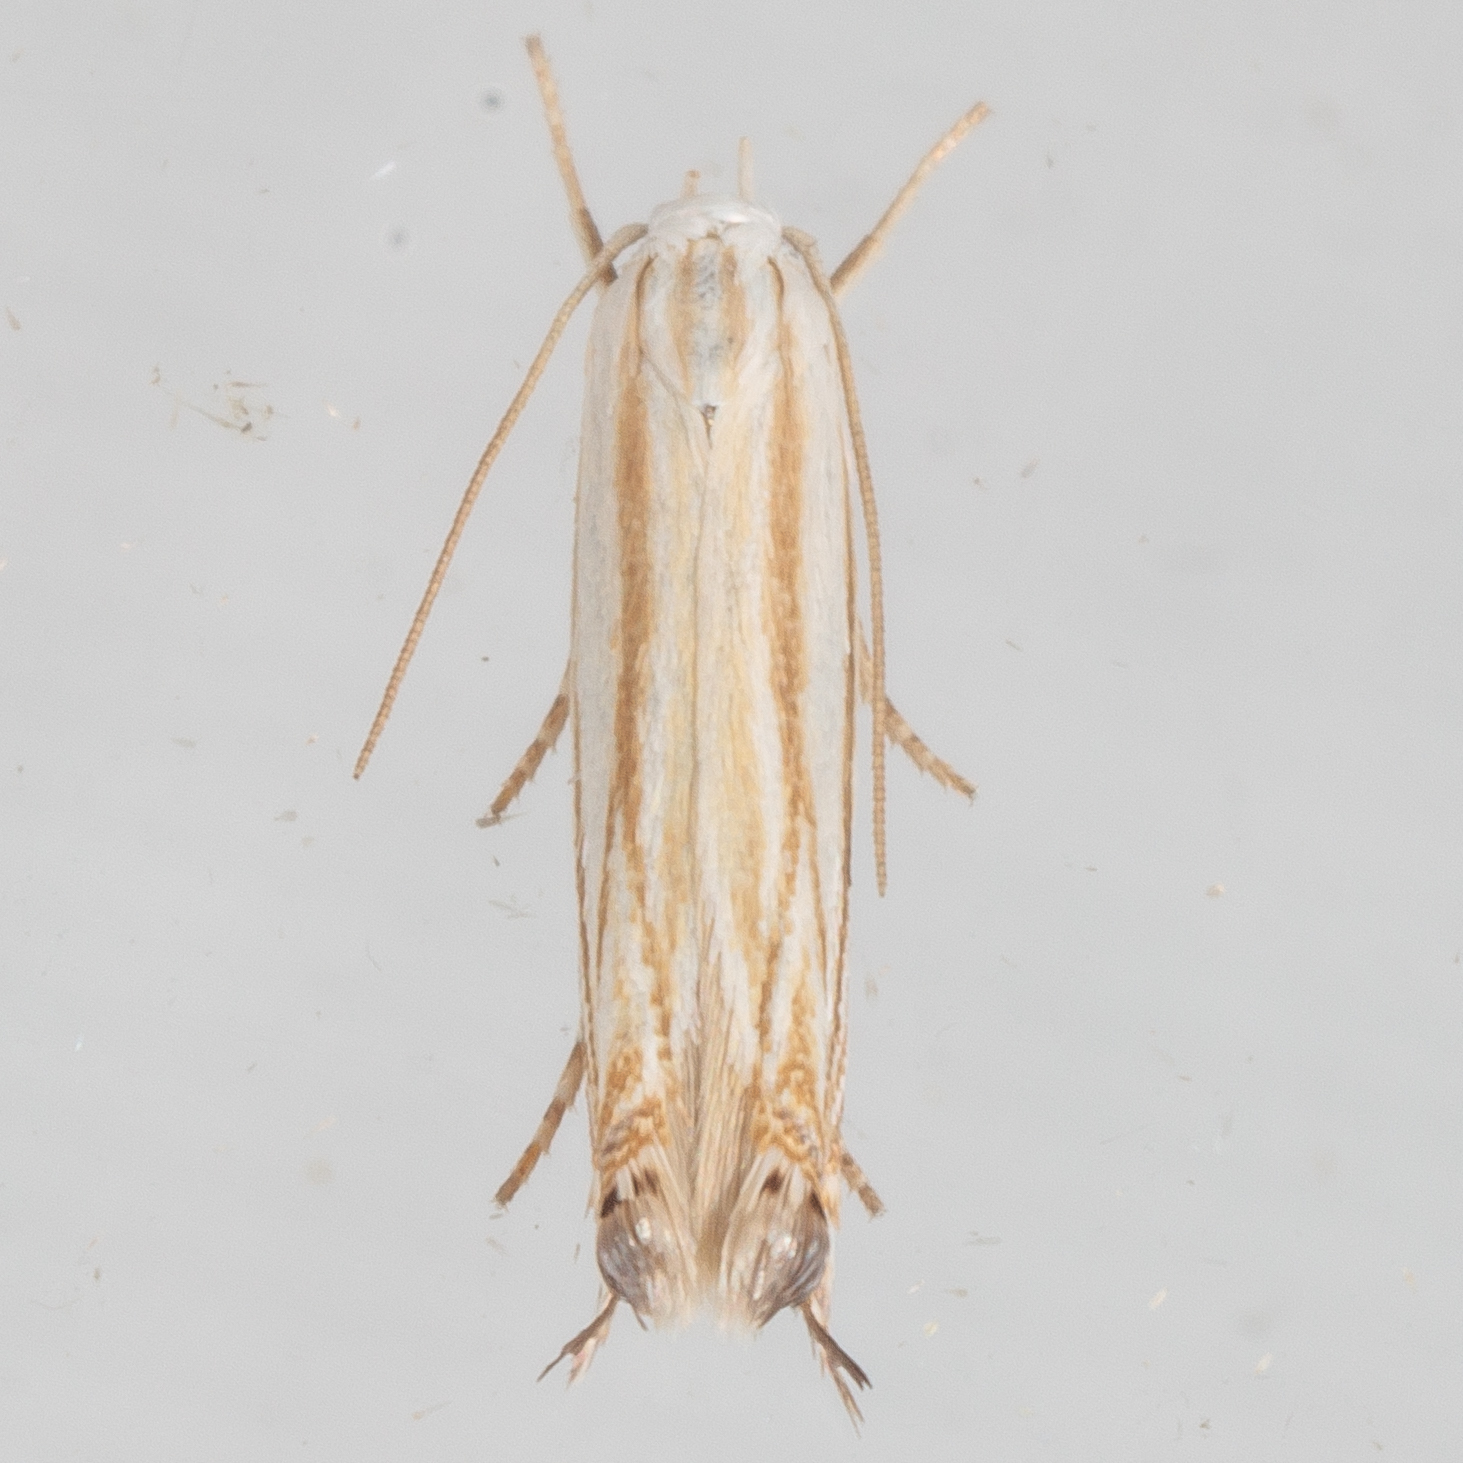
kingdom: Animalia
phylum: Arthropoda
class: Insecta
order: Lepidoptera
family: Gelechiidae
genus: Polyhymno
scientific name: Polyhymno luteostrigella
